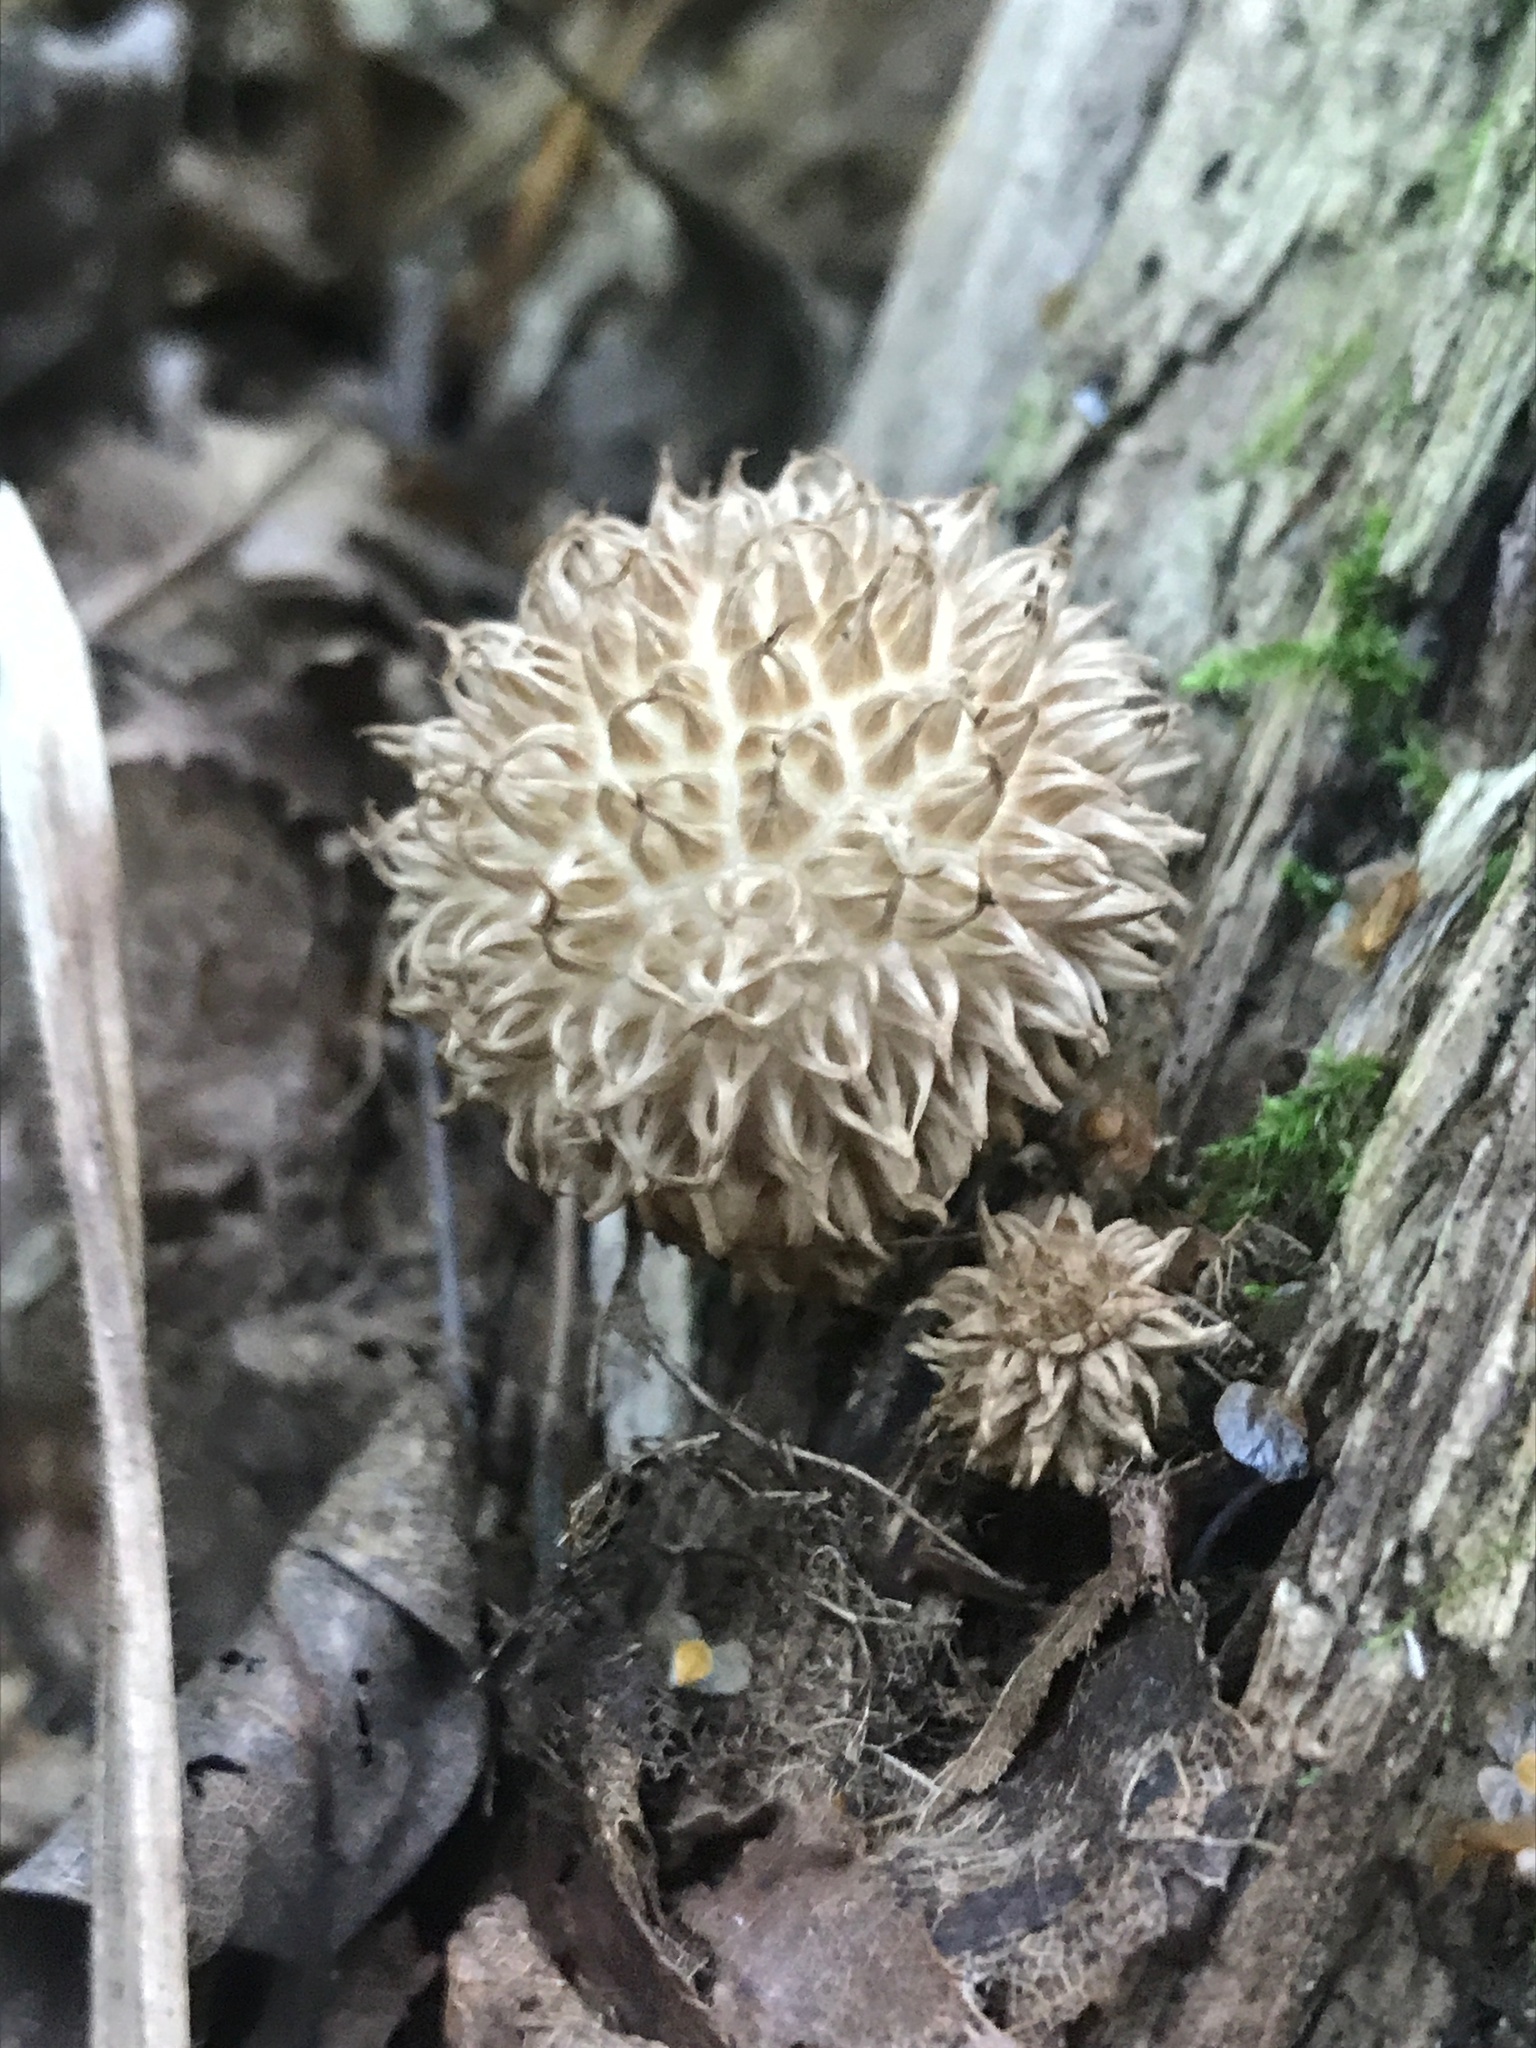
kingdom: Fungi
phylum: Basidiomycota
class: Agaricomycetes
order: Agaricales
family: Lycoperdaceae
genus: Lycoperdon
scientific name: Lycoperdon echinatum
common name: Hedgehog puffball
